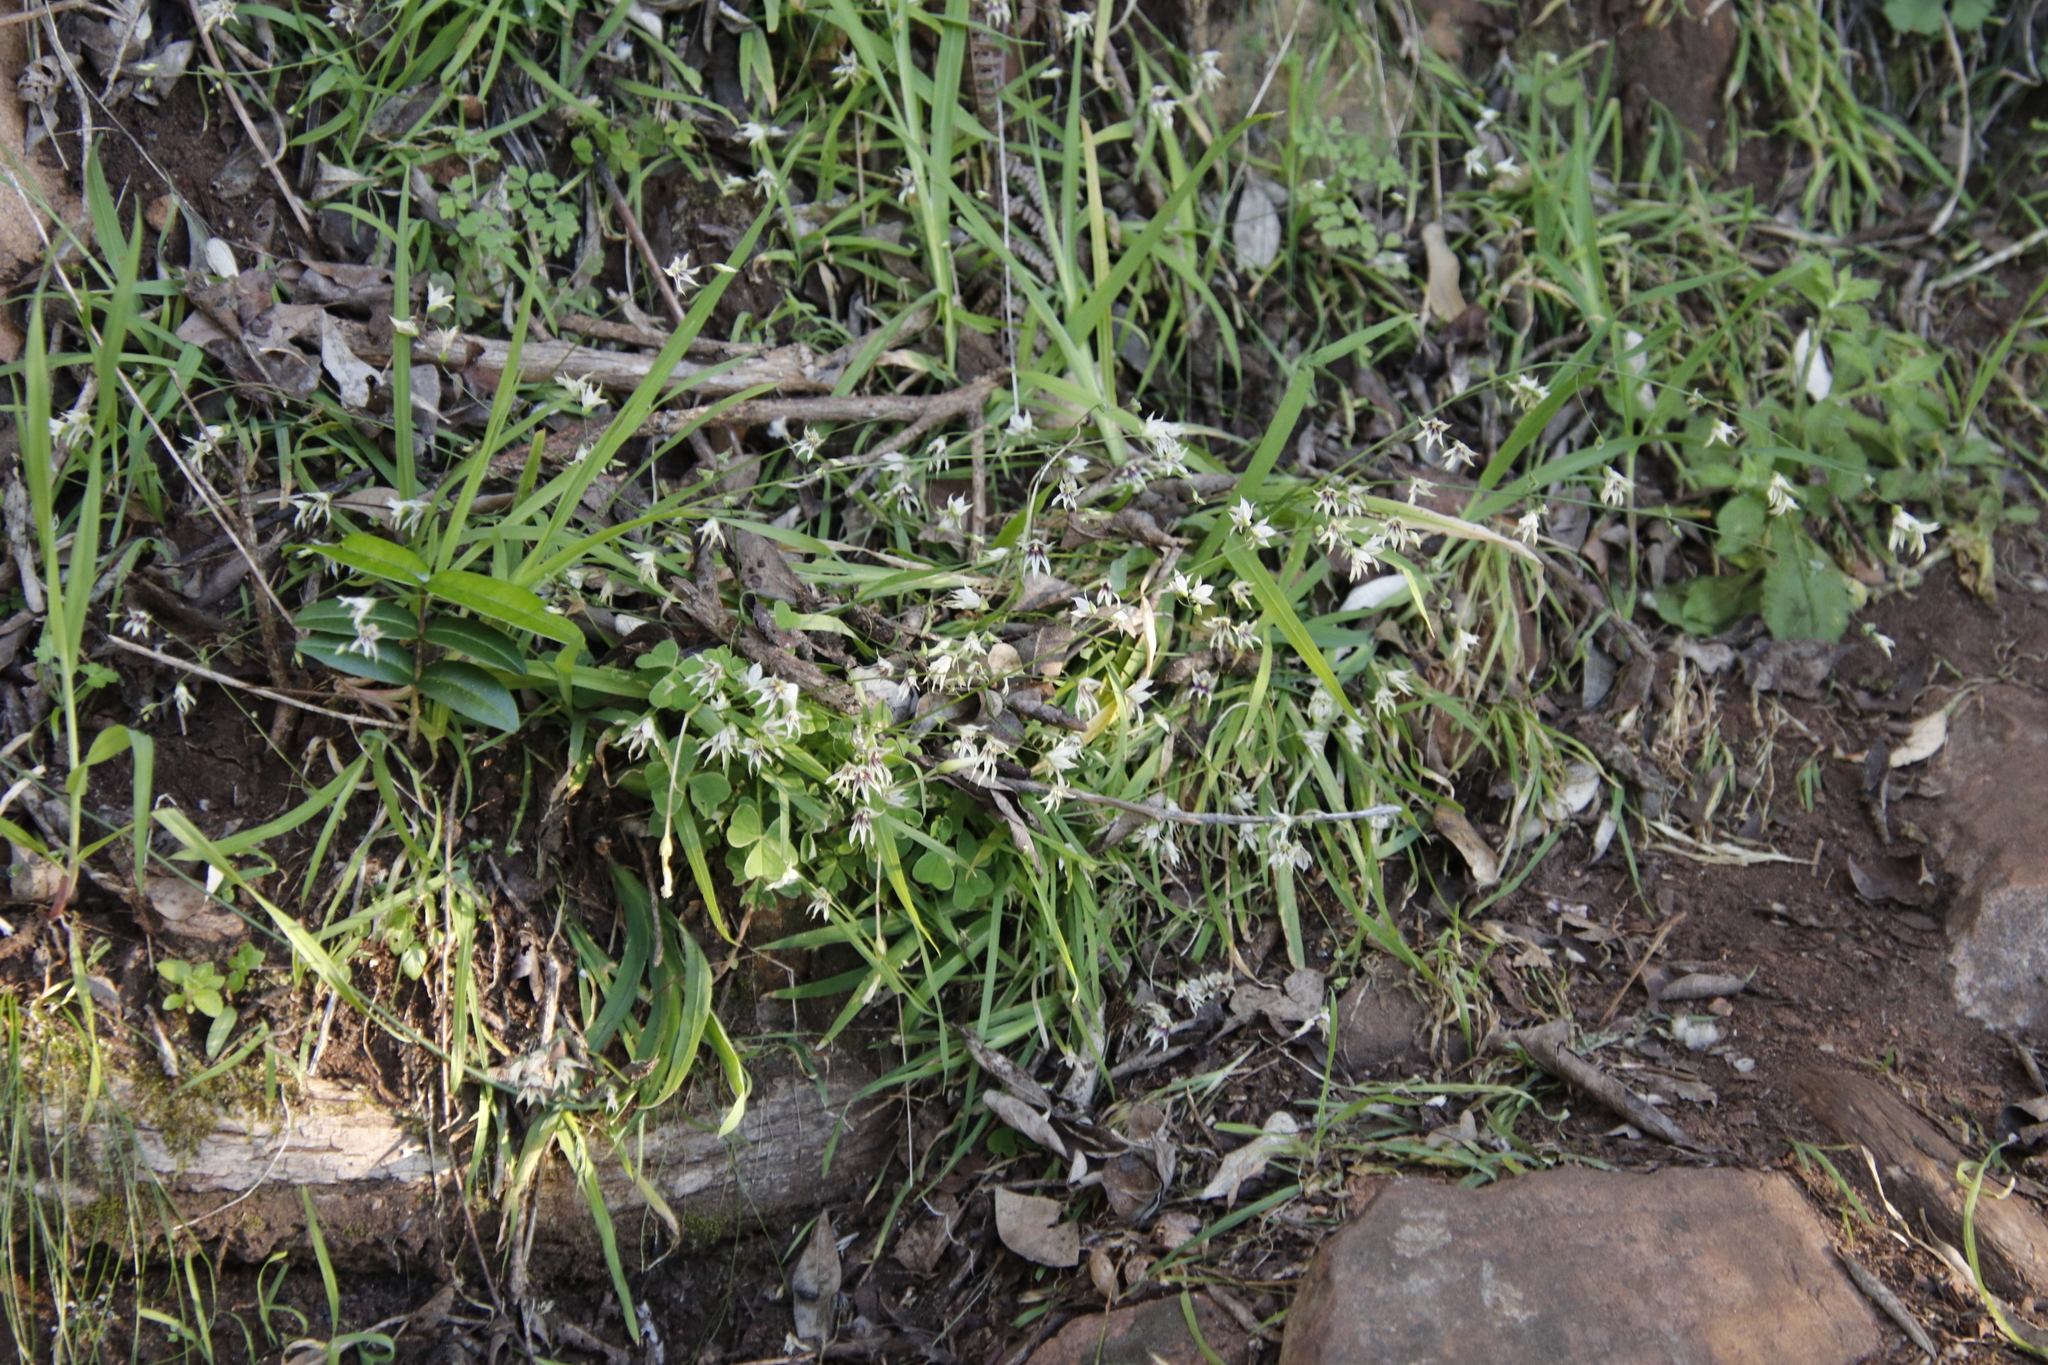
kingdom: Plantae
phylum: Tracheophyta
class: Liliopsida
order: Asparagales
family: Iridaceae
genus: Melasphaerula
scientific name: Melasphaerula graminea
